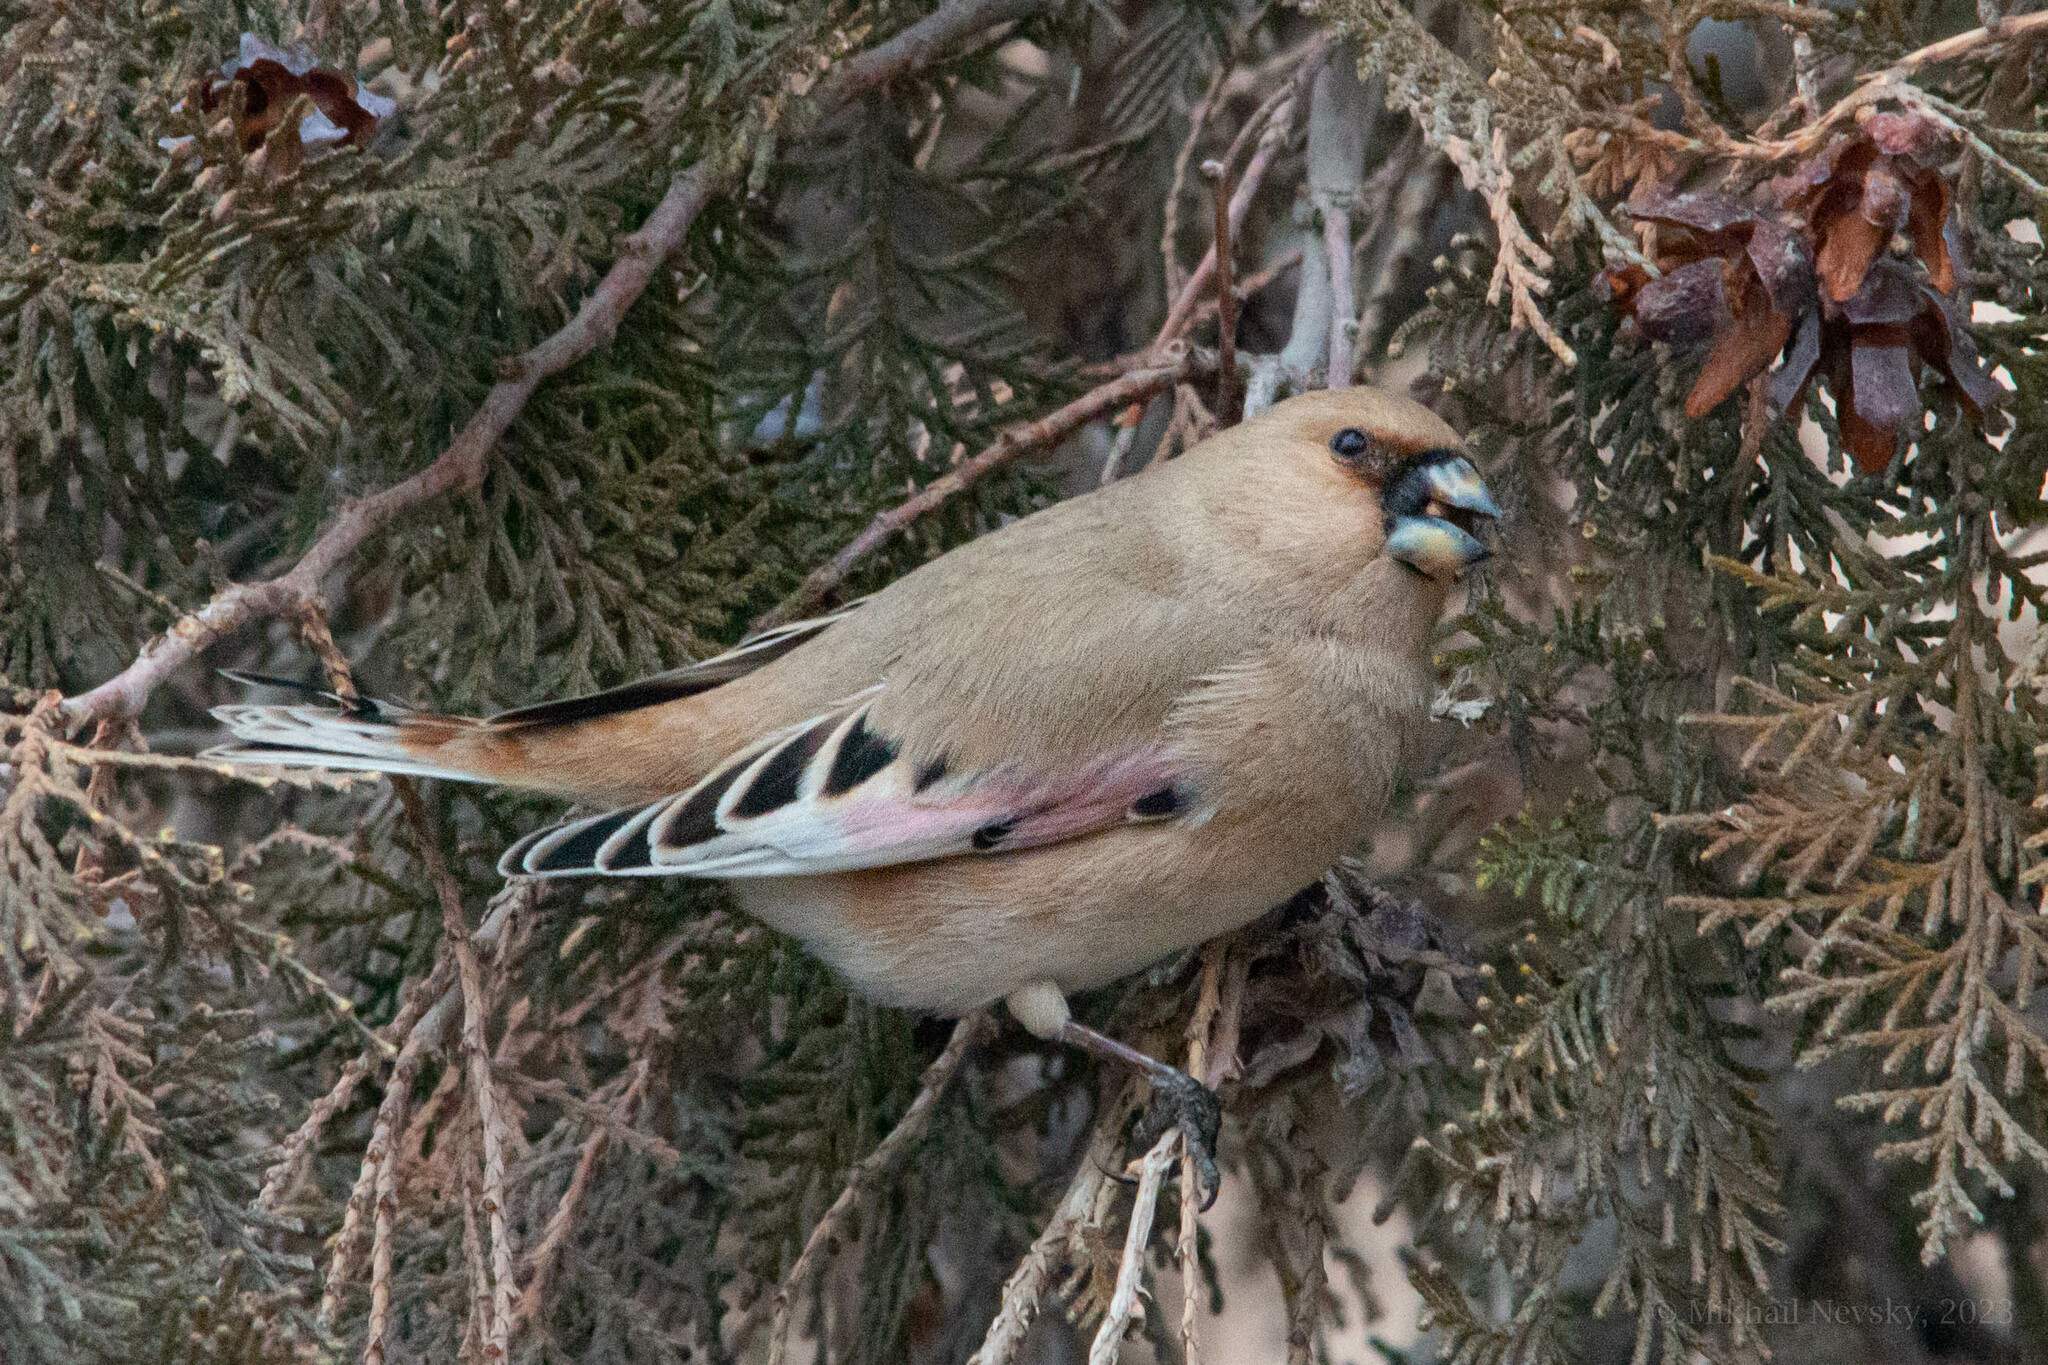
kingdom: Animalia
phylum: Chordata
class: Aves
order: Passeriformes
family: Fringillidae
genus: Rhodospiza
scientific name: Rhodospiza obsoleta
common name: Desert finch
